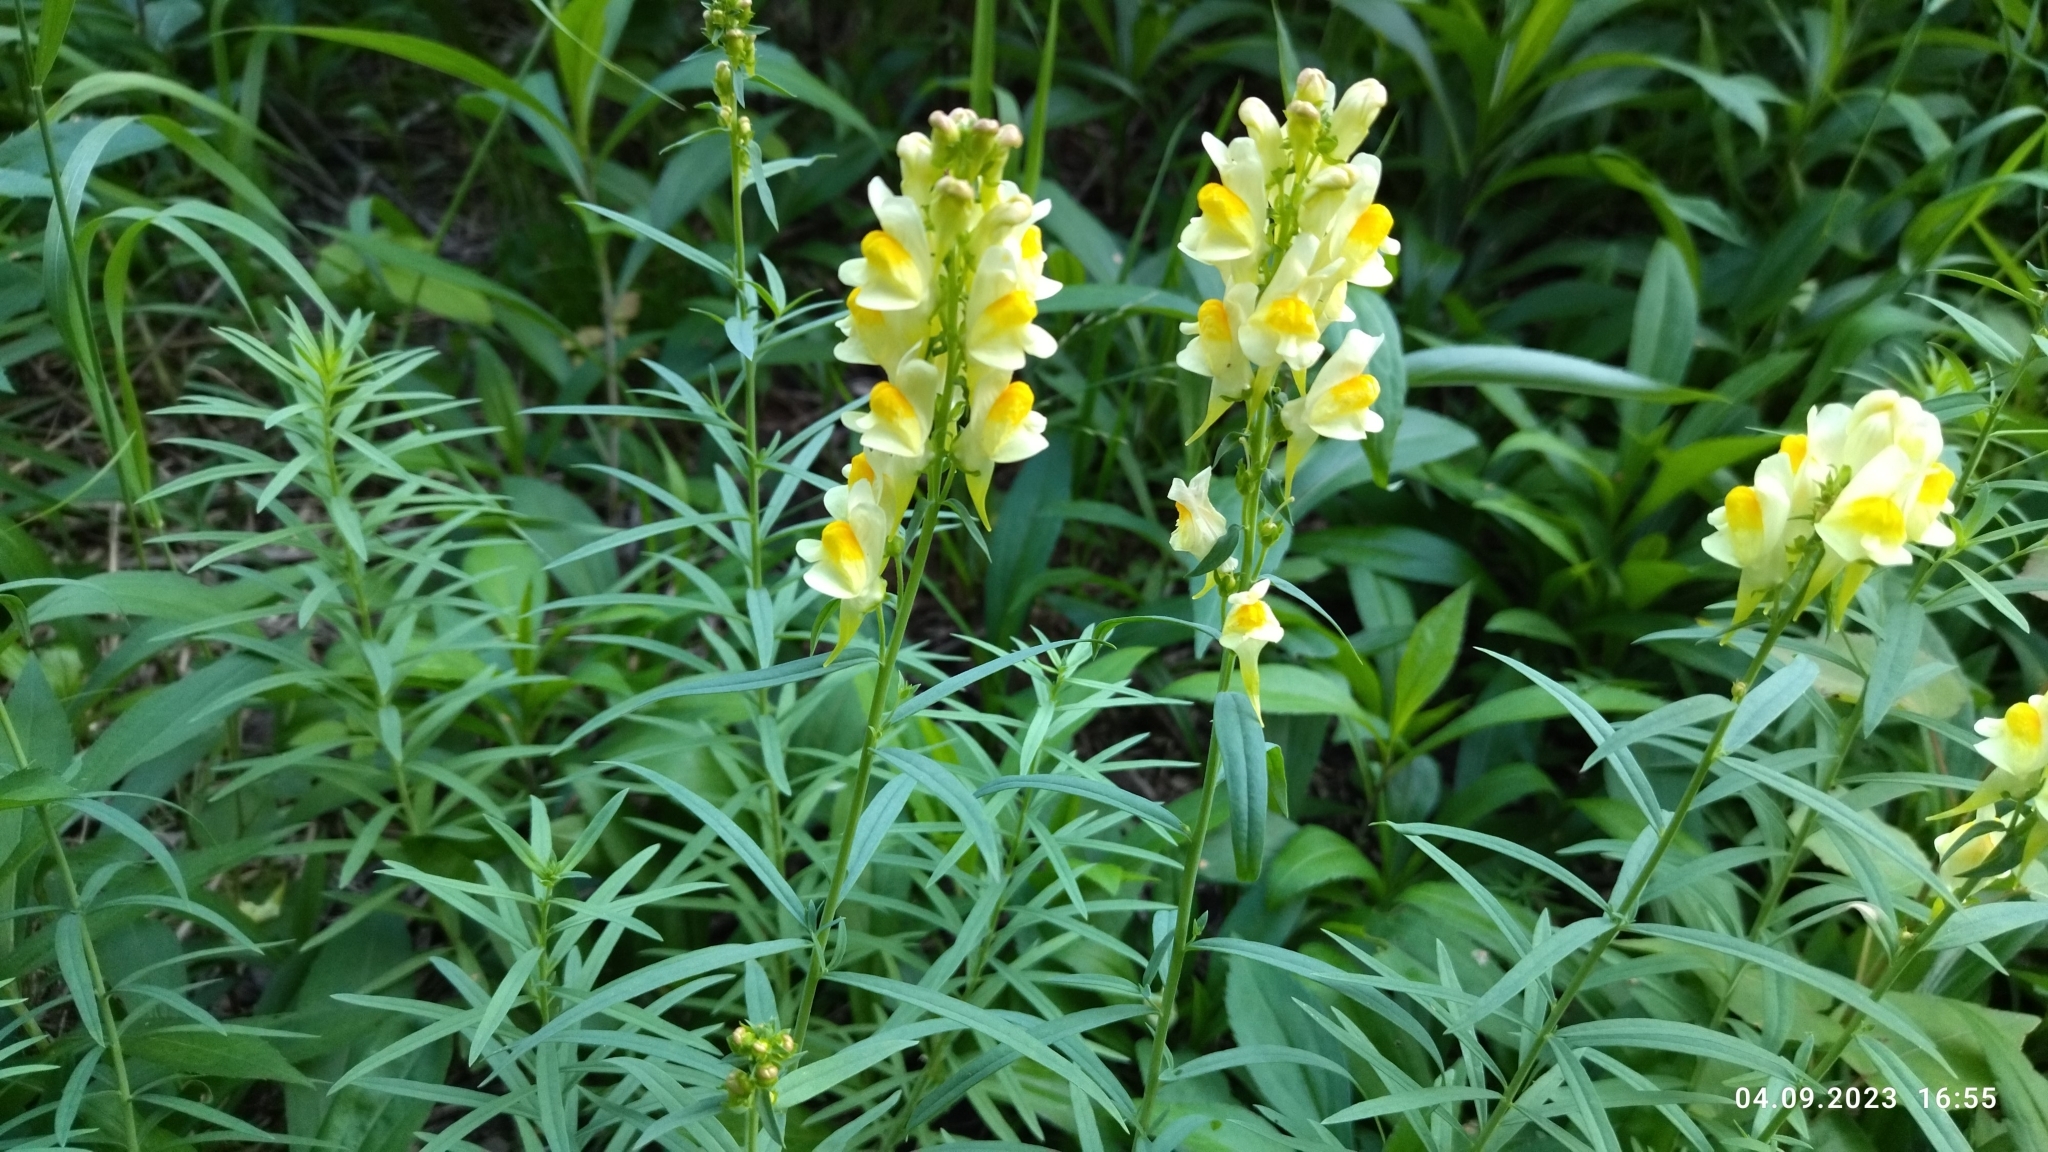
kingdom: Plantae
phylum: Tracheophyta
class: Magnoliopsida
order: Lamiales
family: Plantaginaceae
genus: Linaria
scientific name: Linaria vulgaris
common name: Butter and eggs
